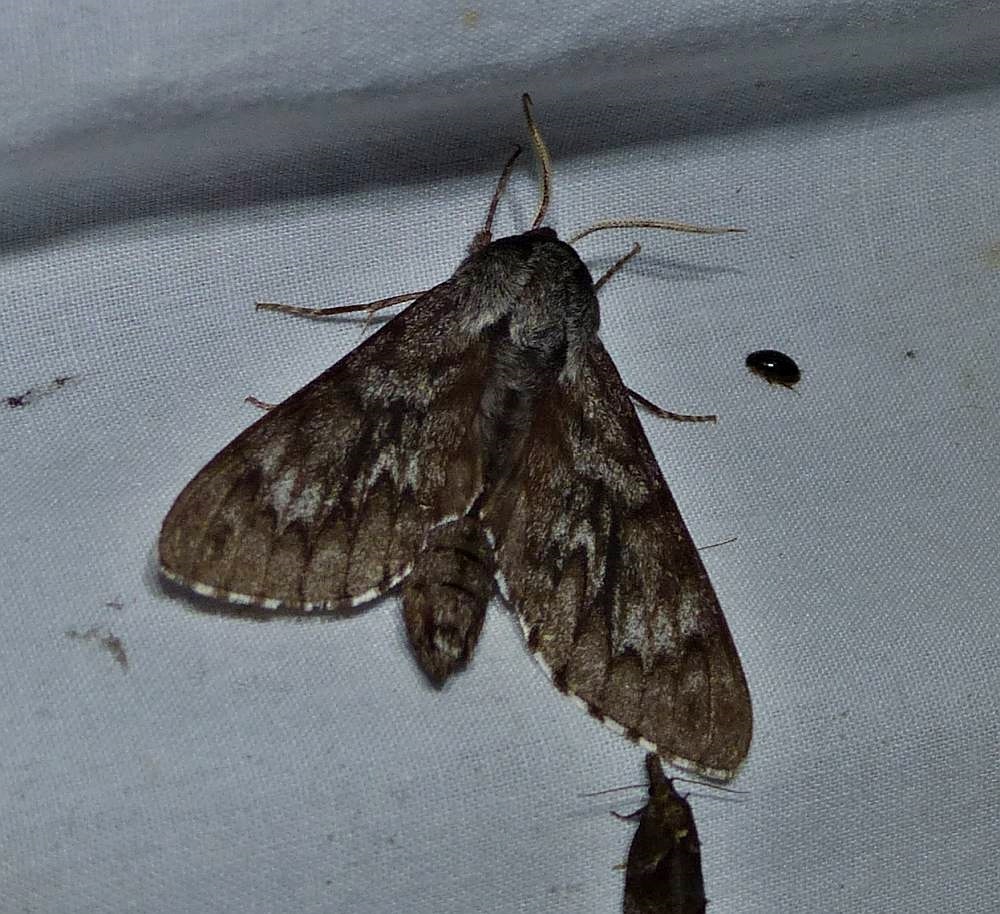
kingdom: Animalia
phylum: Arthropoda
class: Insecta
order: Lepidoptera
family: Sphingidae
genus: Lapara
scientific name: Lapara bombycoides
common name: Northern pine sphinx
